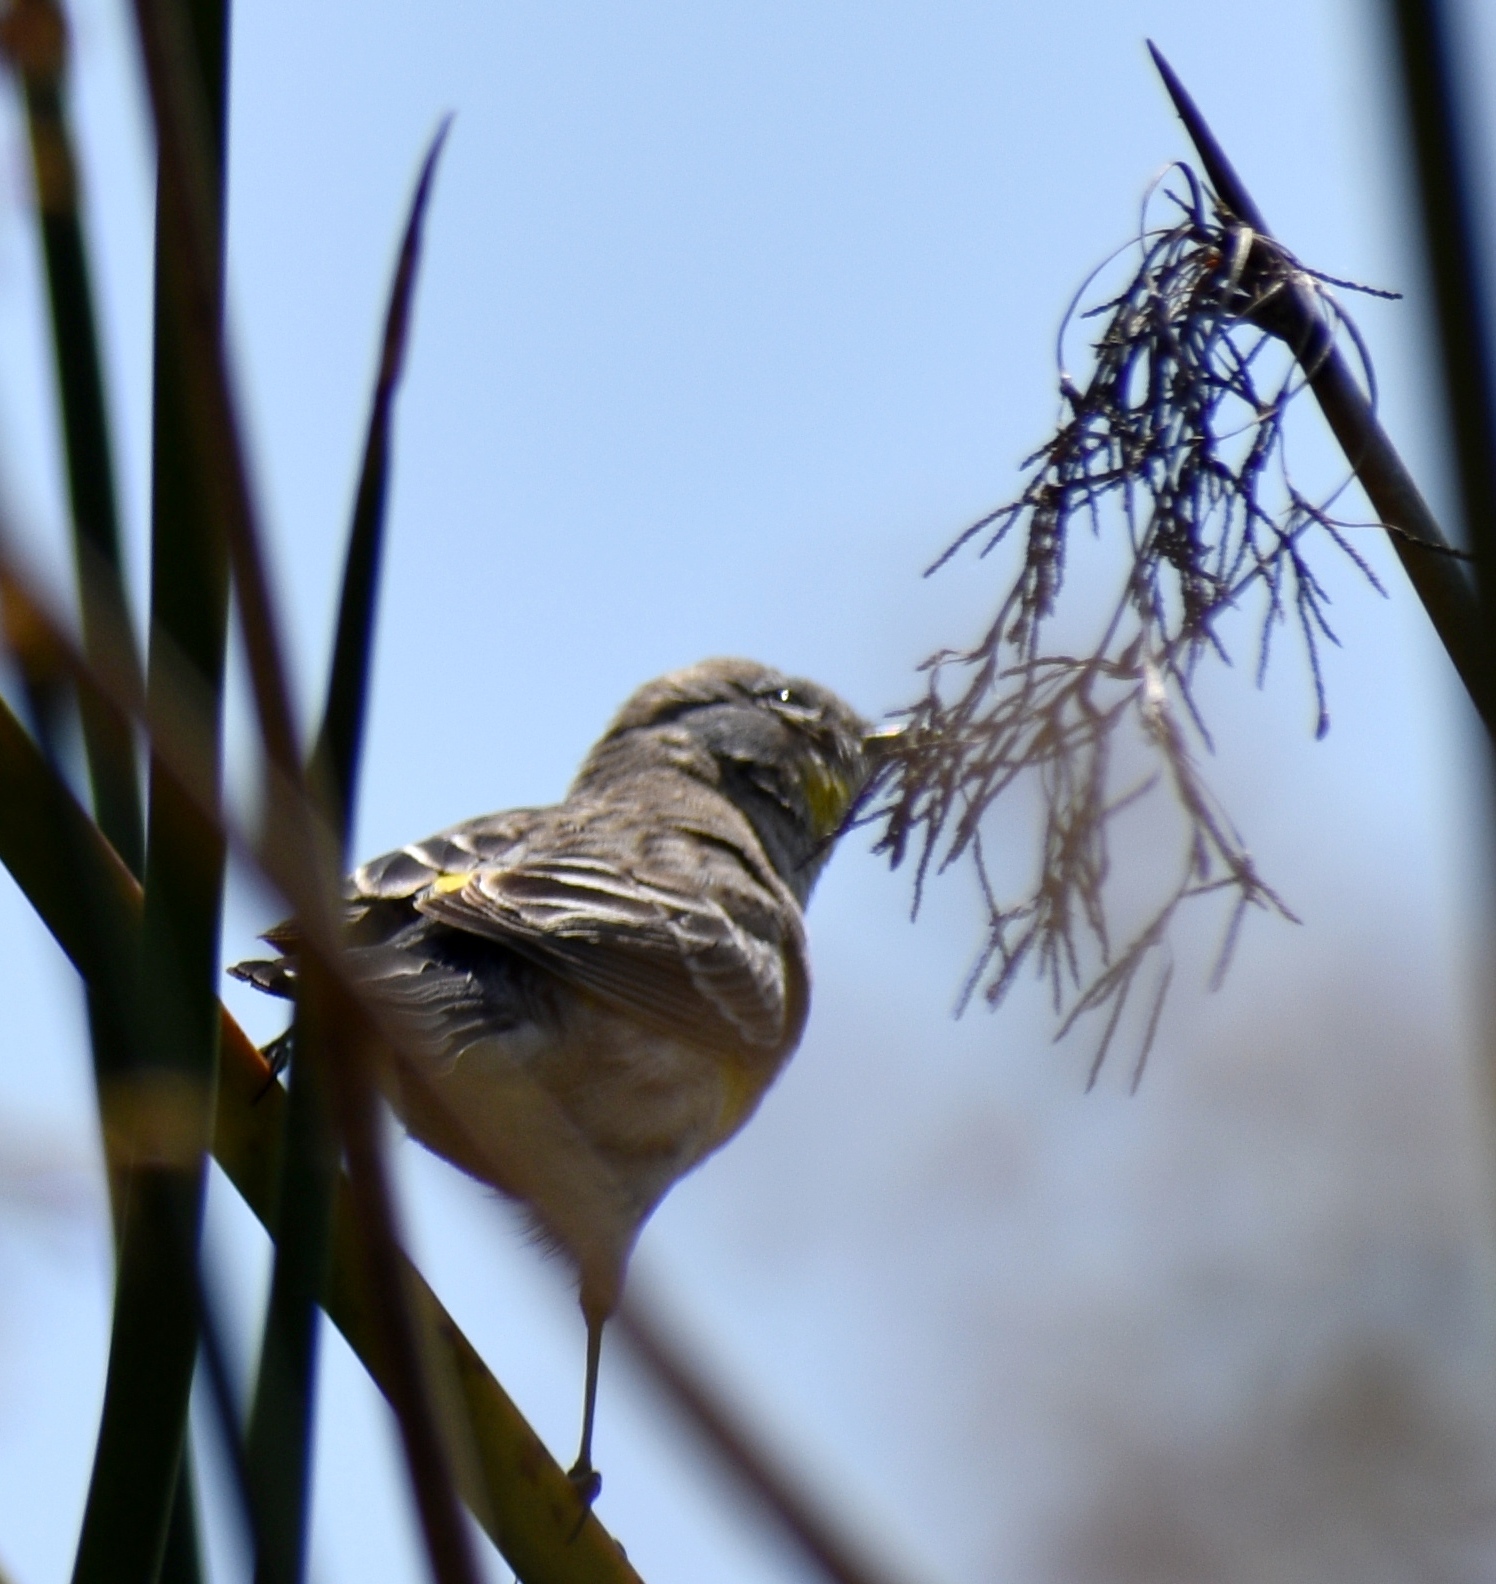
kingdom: Animalia
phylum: Chordata
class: Aves
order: Passeriformes
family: Parulidae
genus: Setophaga
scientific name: Setophaga coronata
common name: Myrtle warbler
